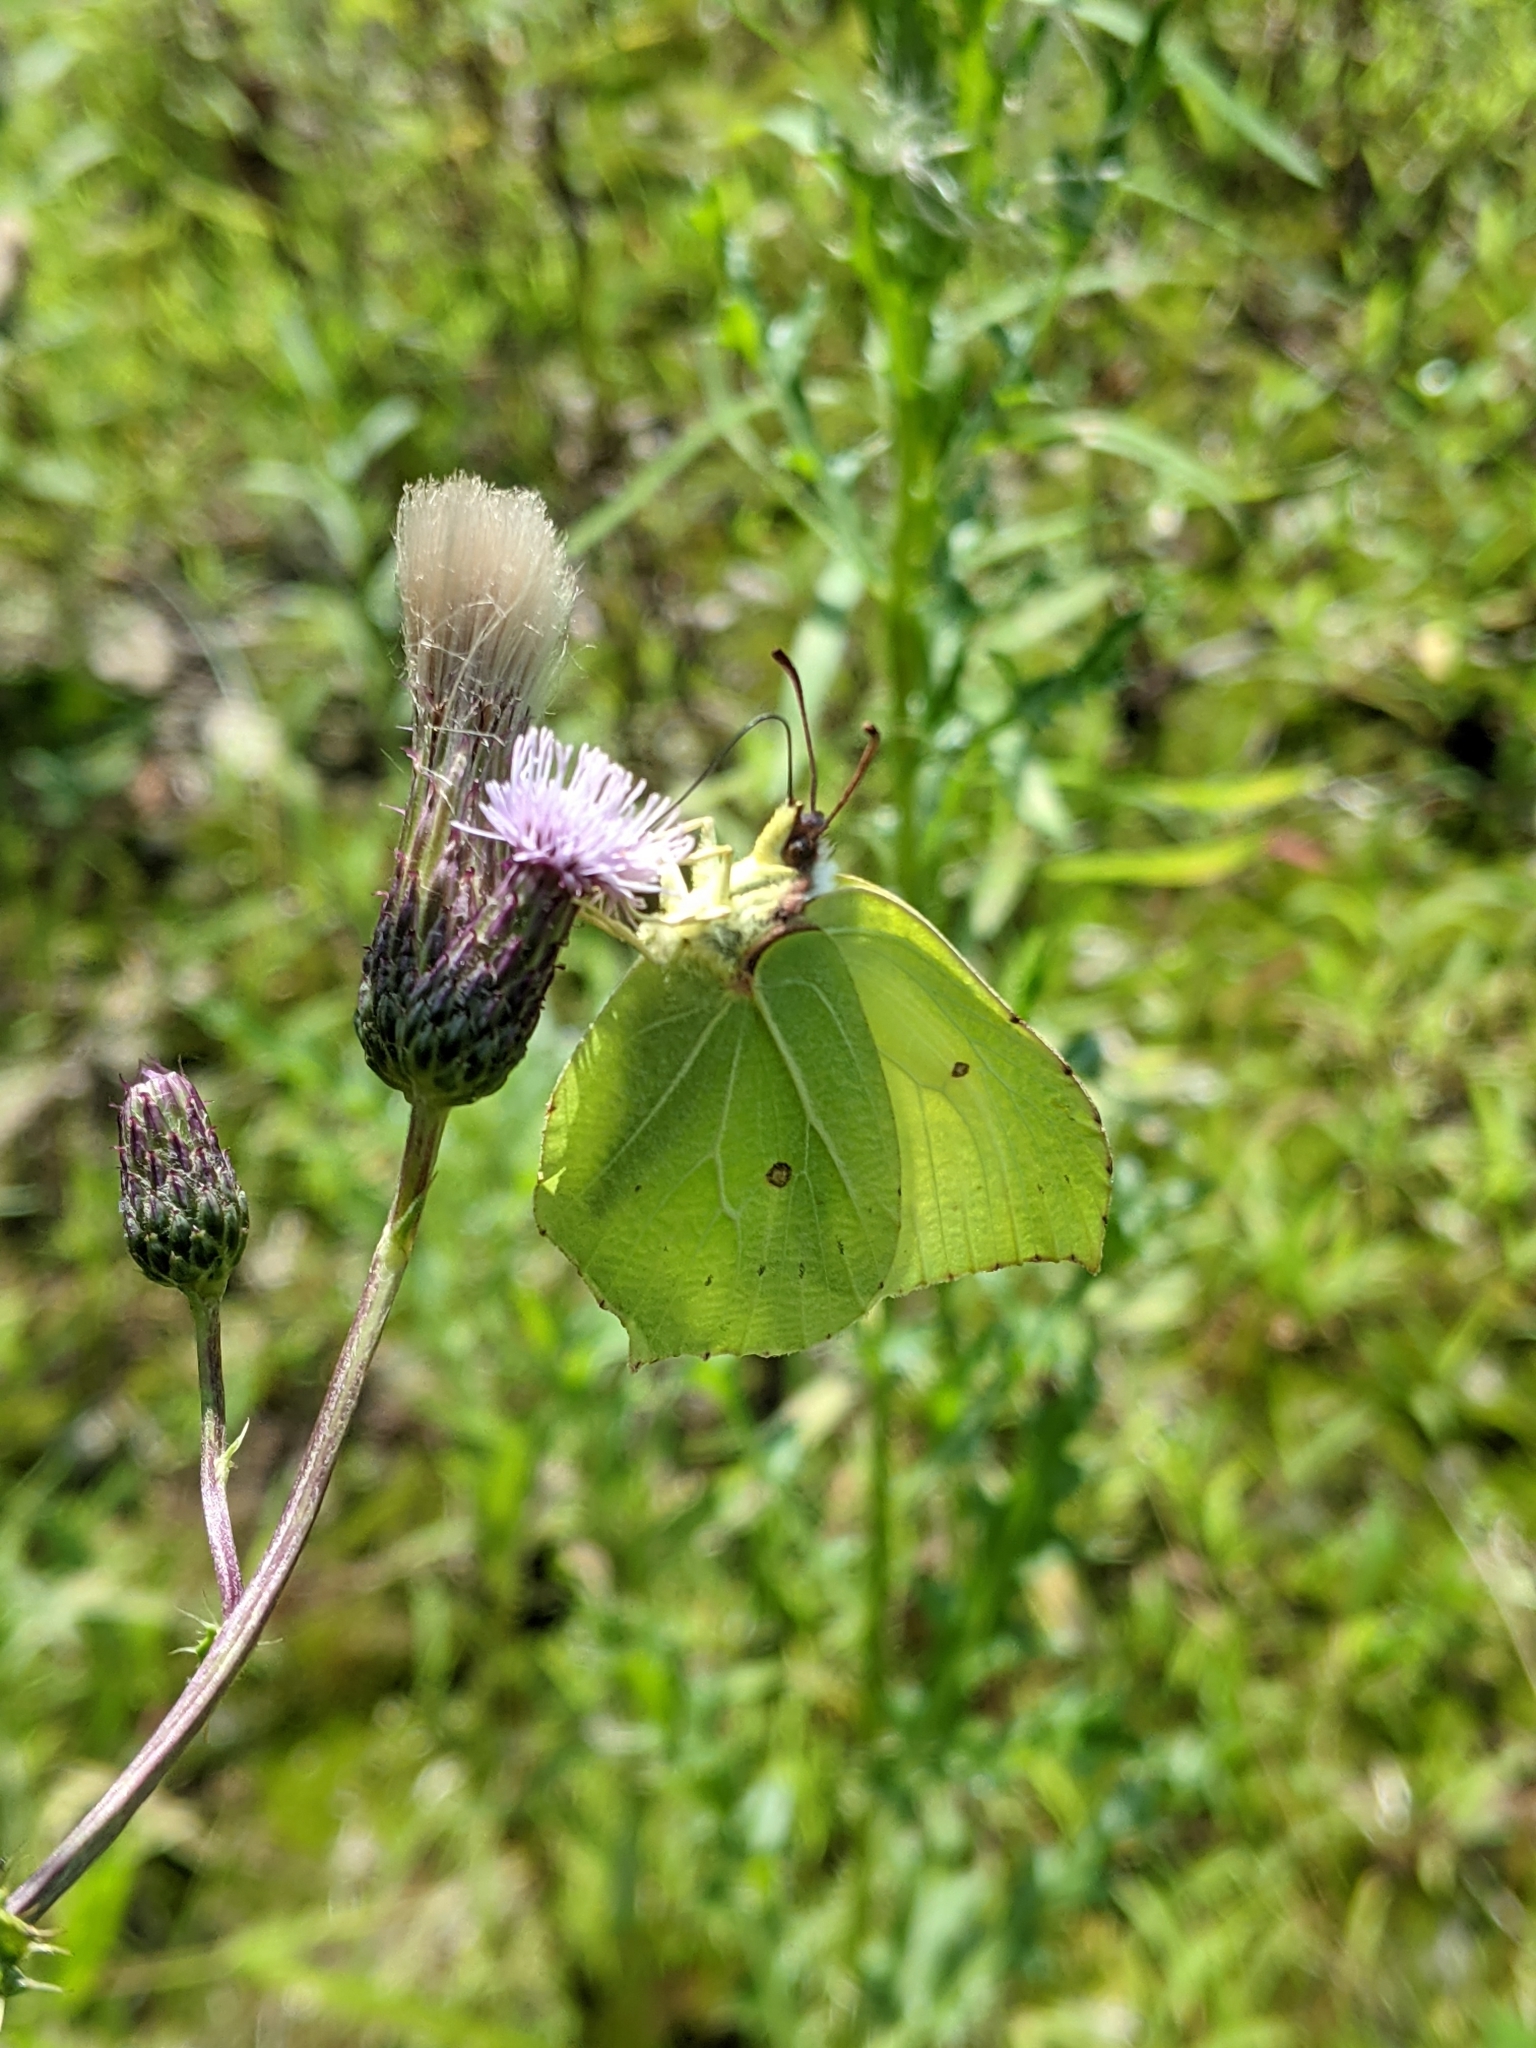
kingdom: Animalia
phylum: Arthropoda
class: Insecta
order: Lepidoptera
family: Pieridae
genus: Gonepteryx
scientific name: Gonepteryx rhamni
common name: Brimstone
